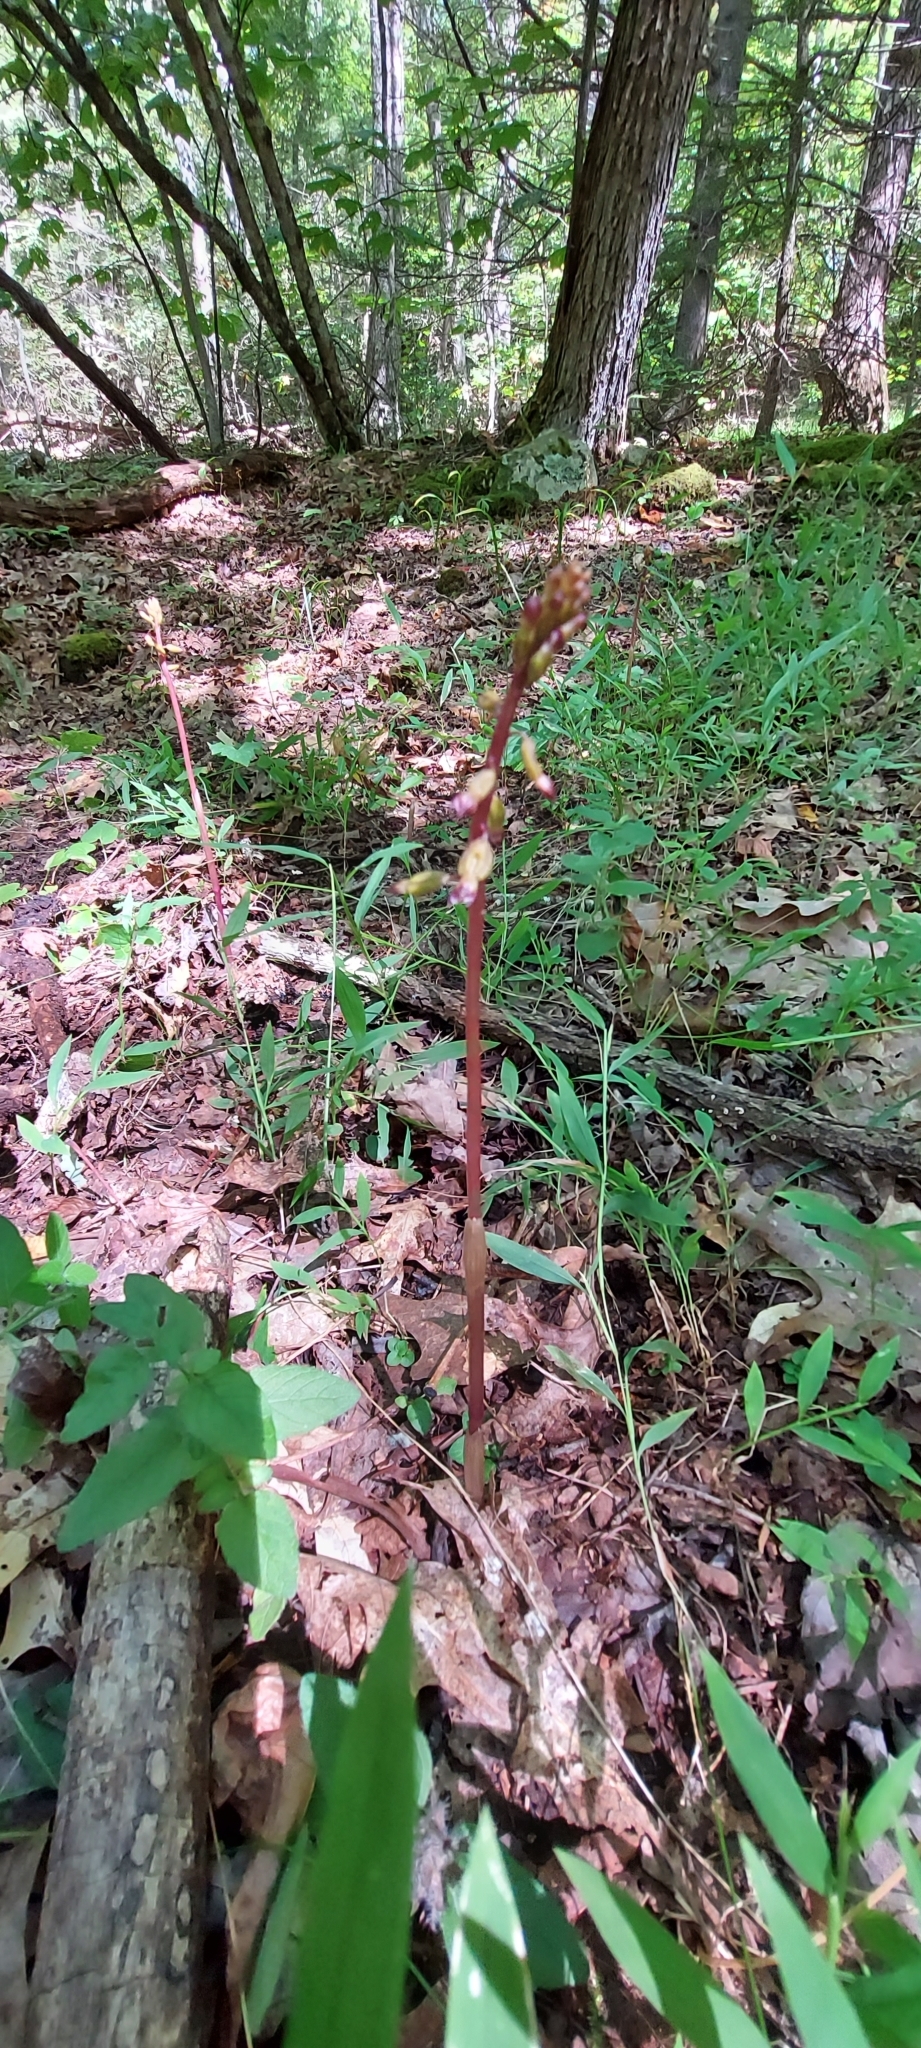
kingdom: Plantae
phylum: Tracheophyta
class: Liliopsida
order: Asparagales
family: Orchidaceae
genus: Corallorhiza
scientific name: Corallorhiza odontorhiza
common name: Autumn coralroot
